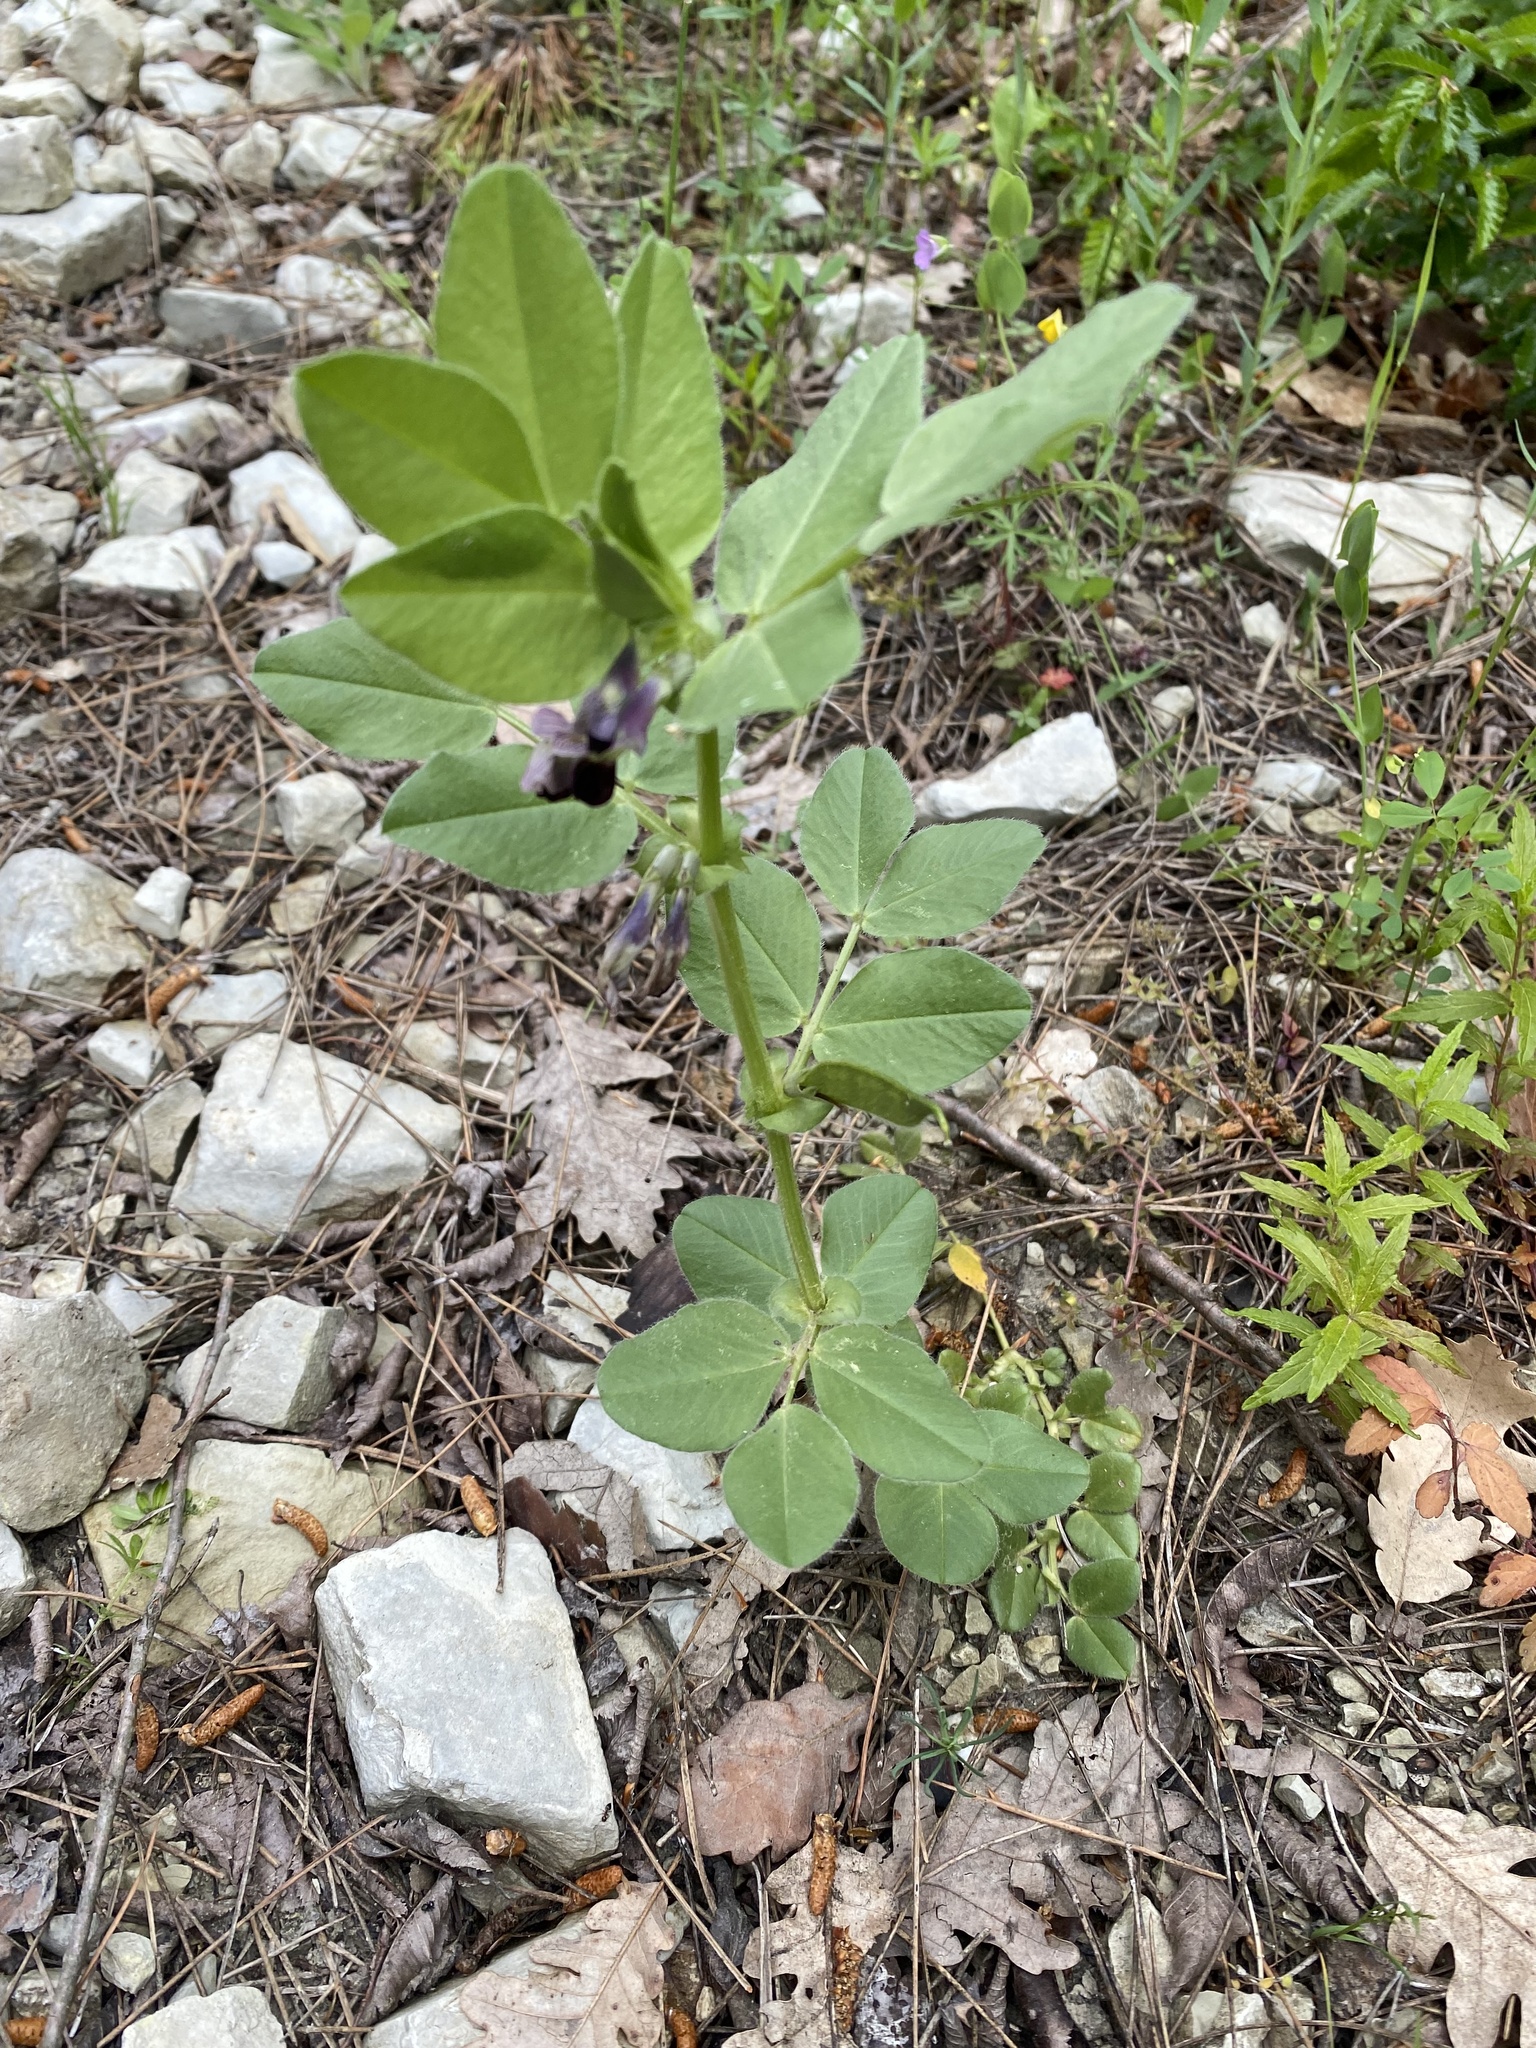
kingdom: Plantae
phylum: Tracheophyta
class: Magnoliopsida
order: Fabales
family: Fabaceae
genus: Vicia
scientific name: Vicia narbonensis
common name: Narbonne vetch
